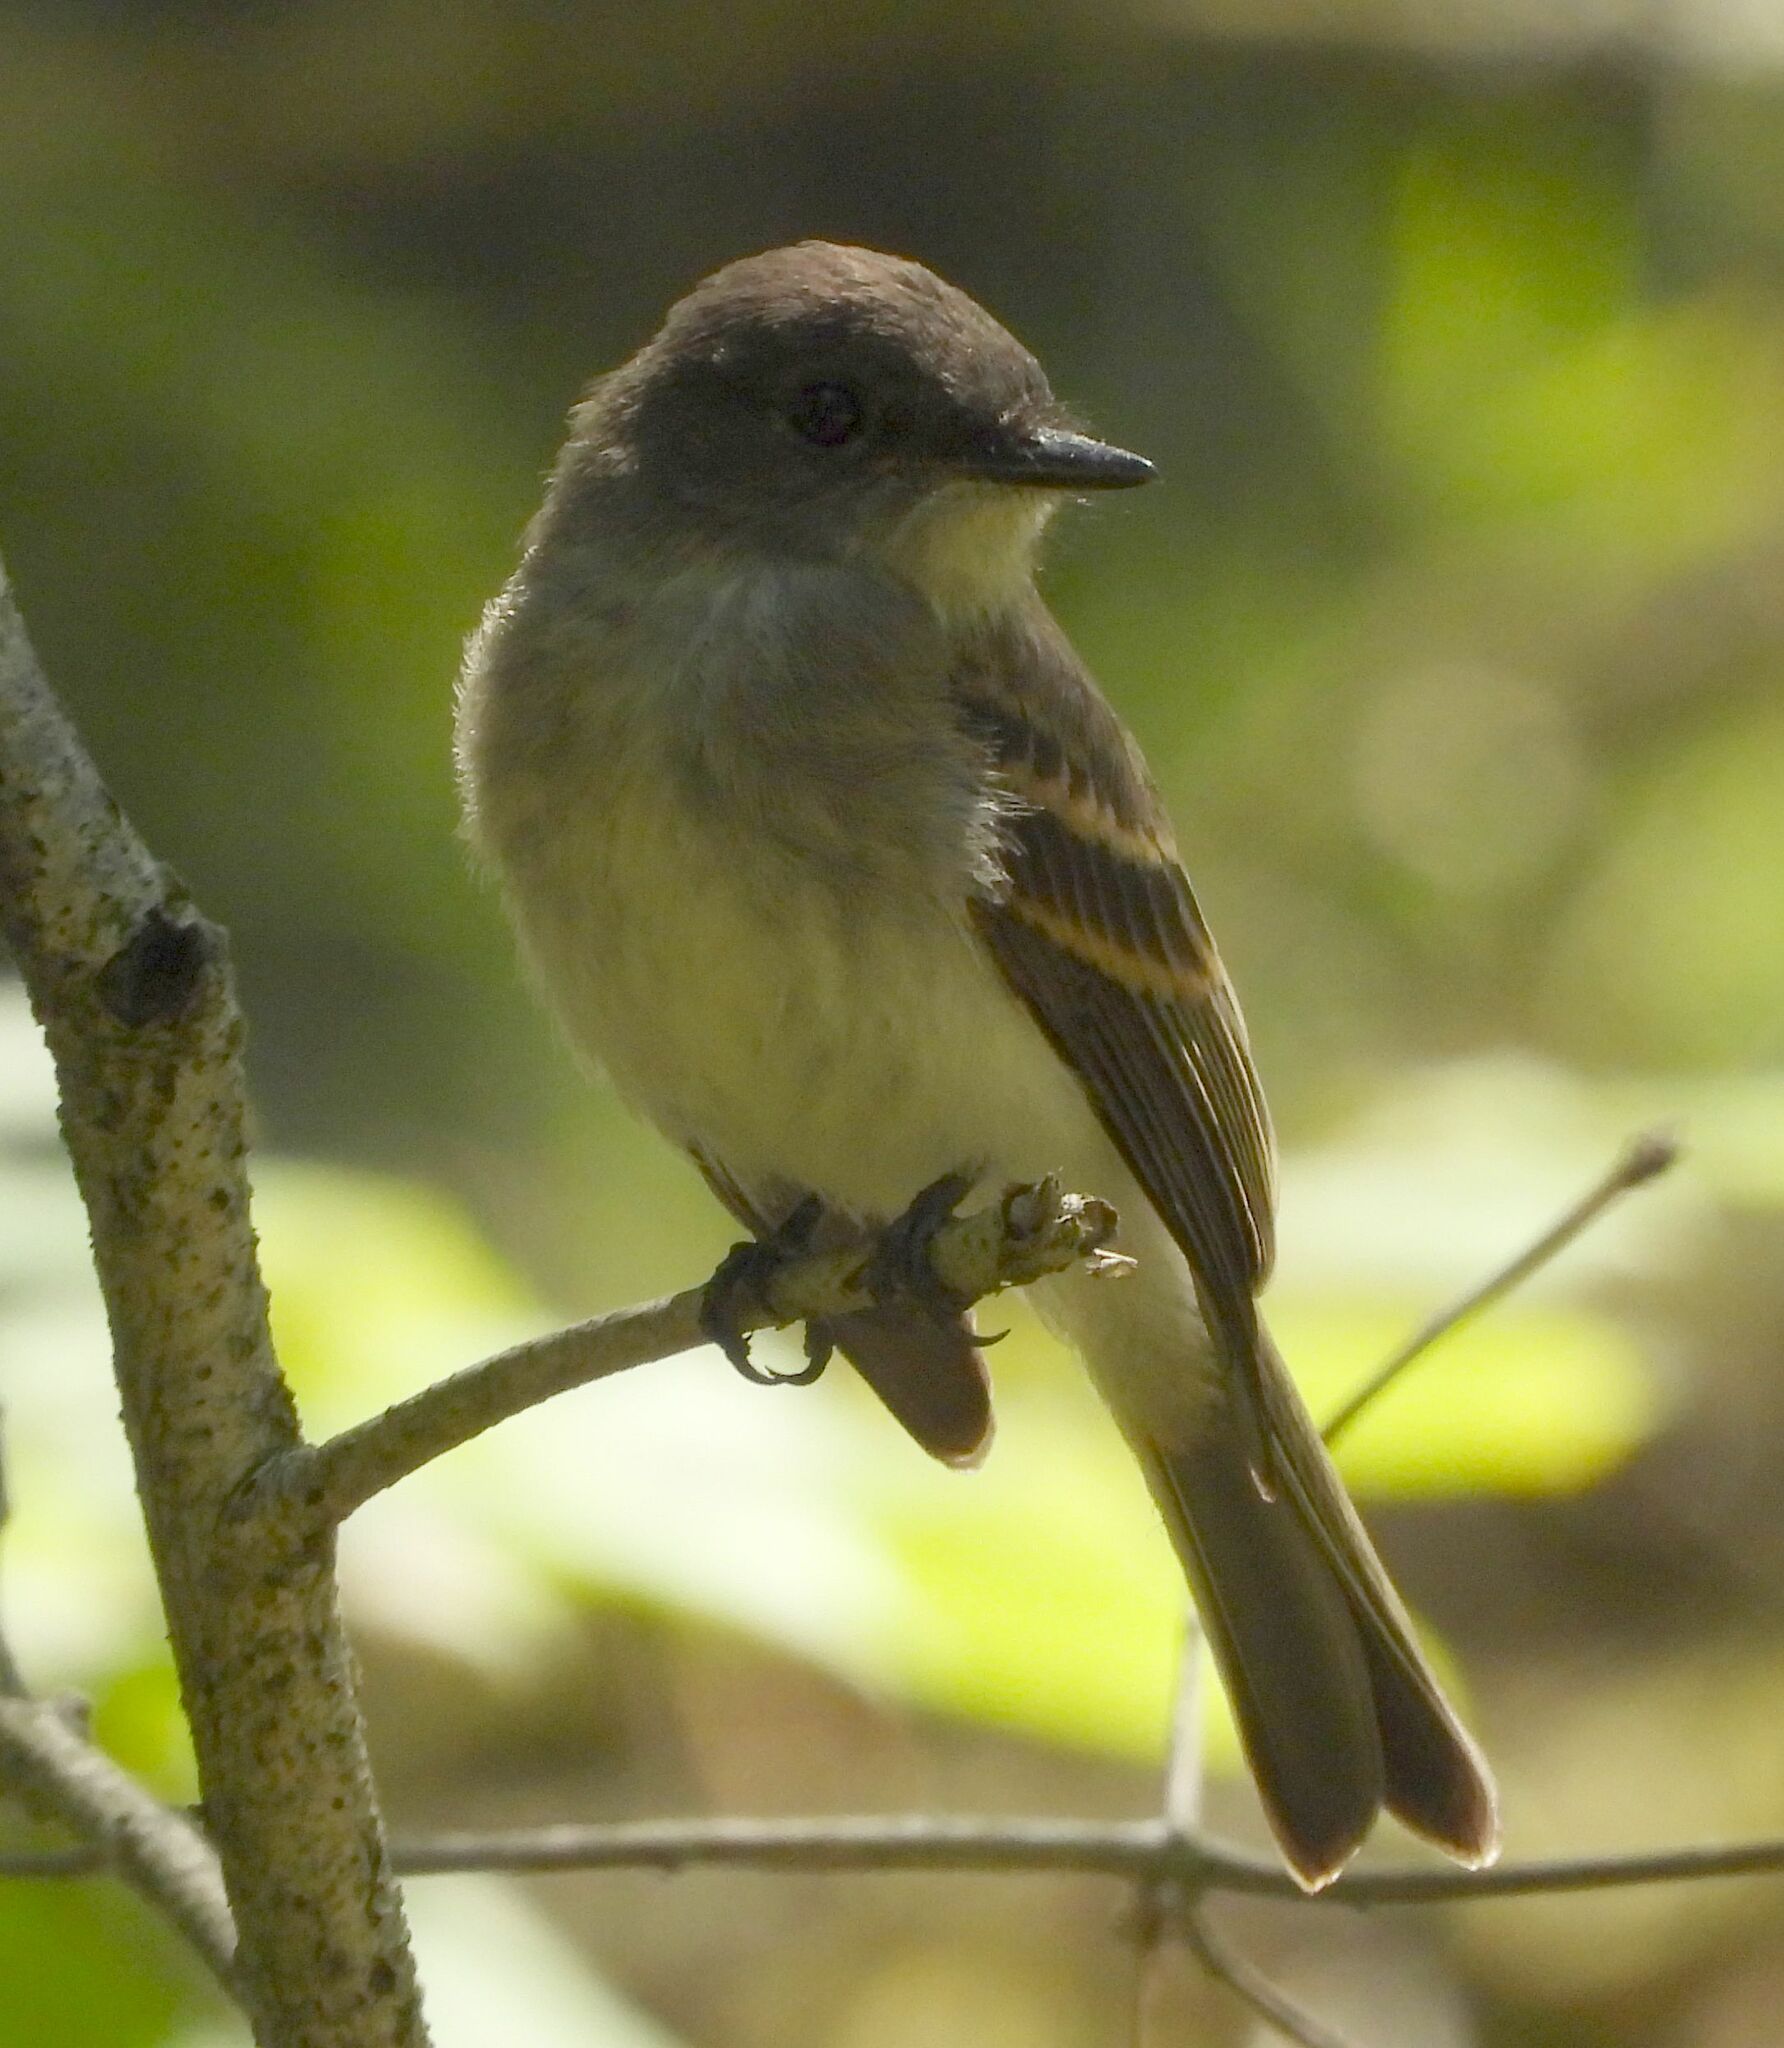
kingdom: Animalia
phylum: Chordata
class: Aves
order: Passeriformes
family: Tyrannidae
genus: Sayornis
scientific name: Sayornis phoebe
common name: Eastern phoebe
